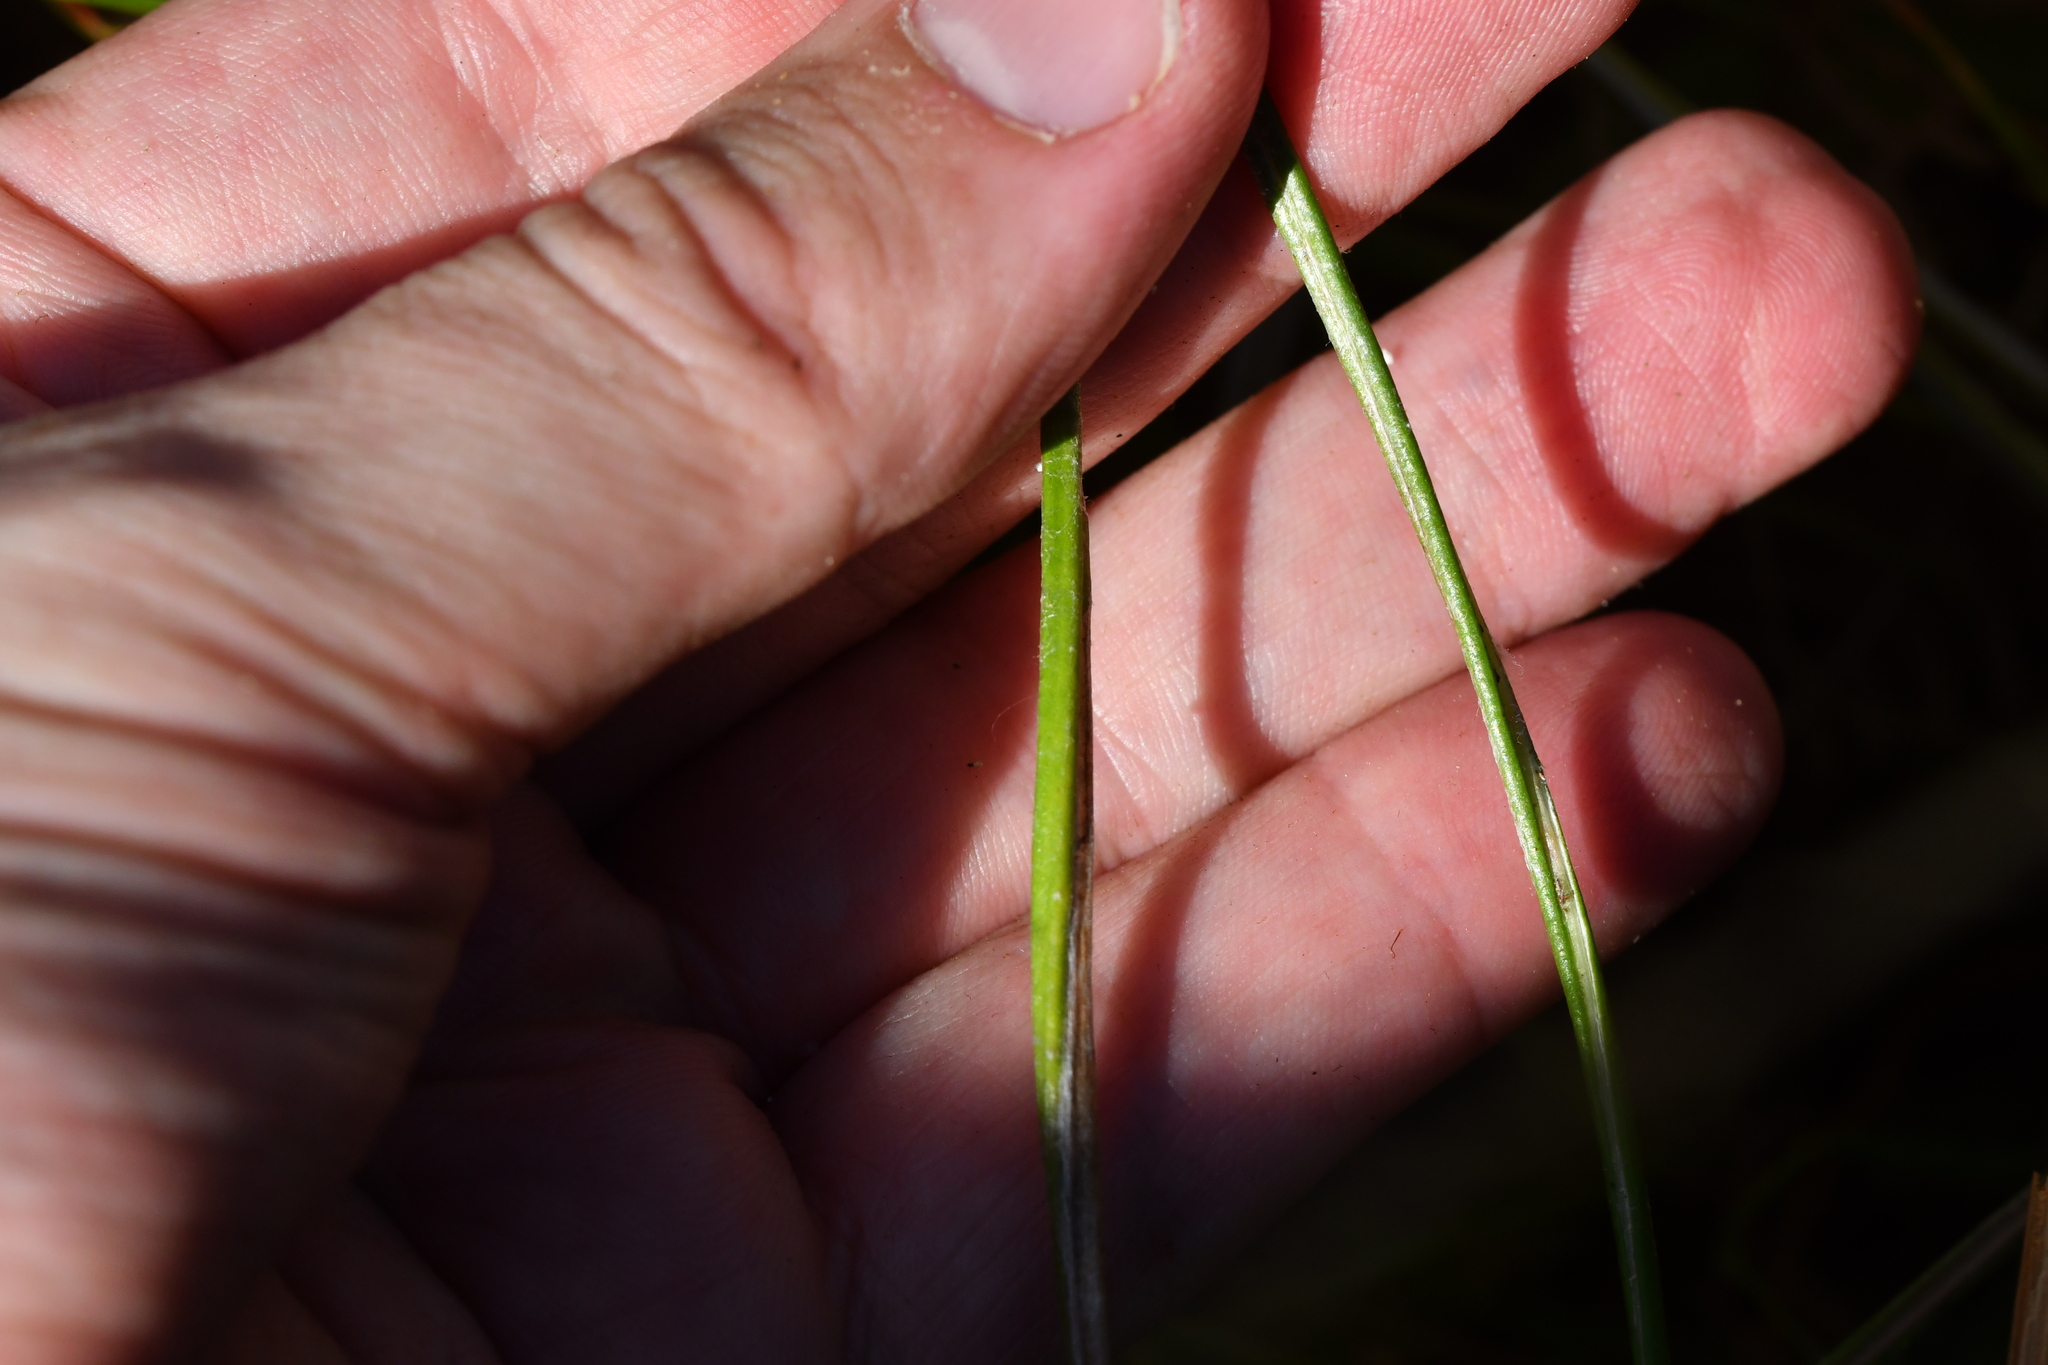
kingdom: Plantae
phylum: Tracheophyta
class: Magnoliopsida
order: Asterales
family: Asteraceae
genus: Celmisia
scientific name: Celmisia gracilenta
